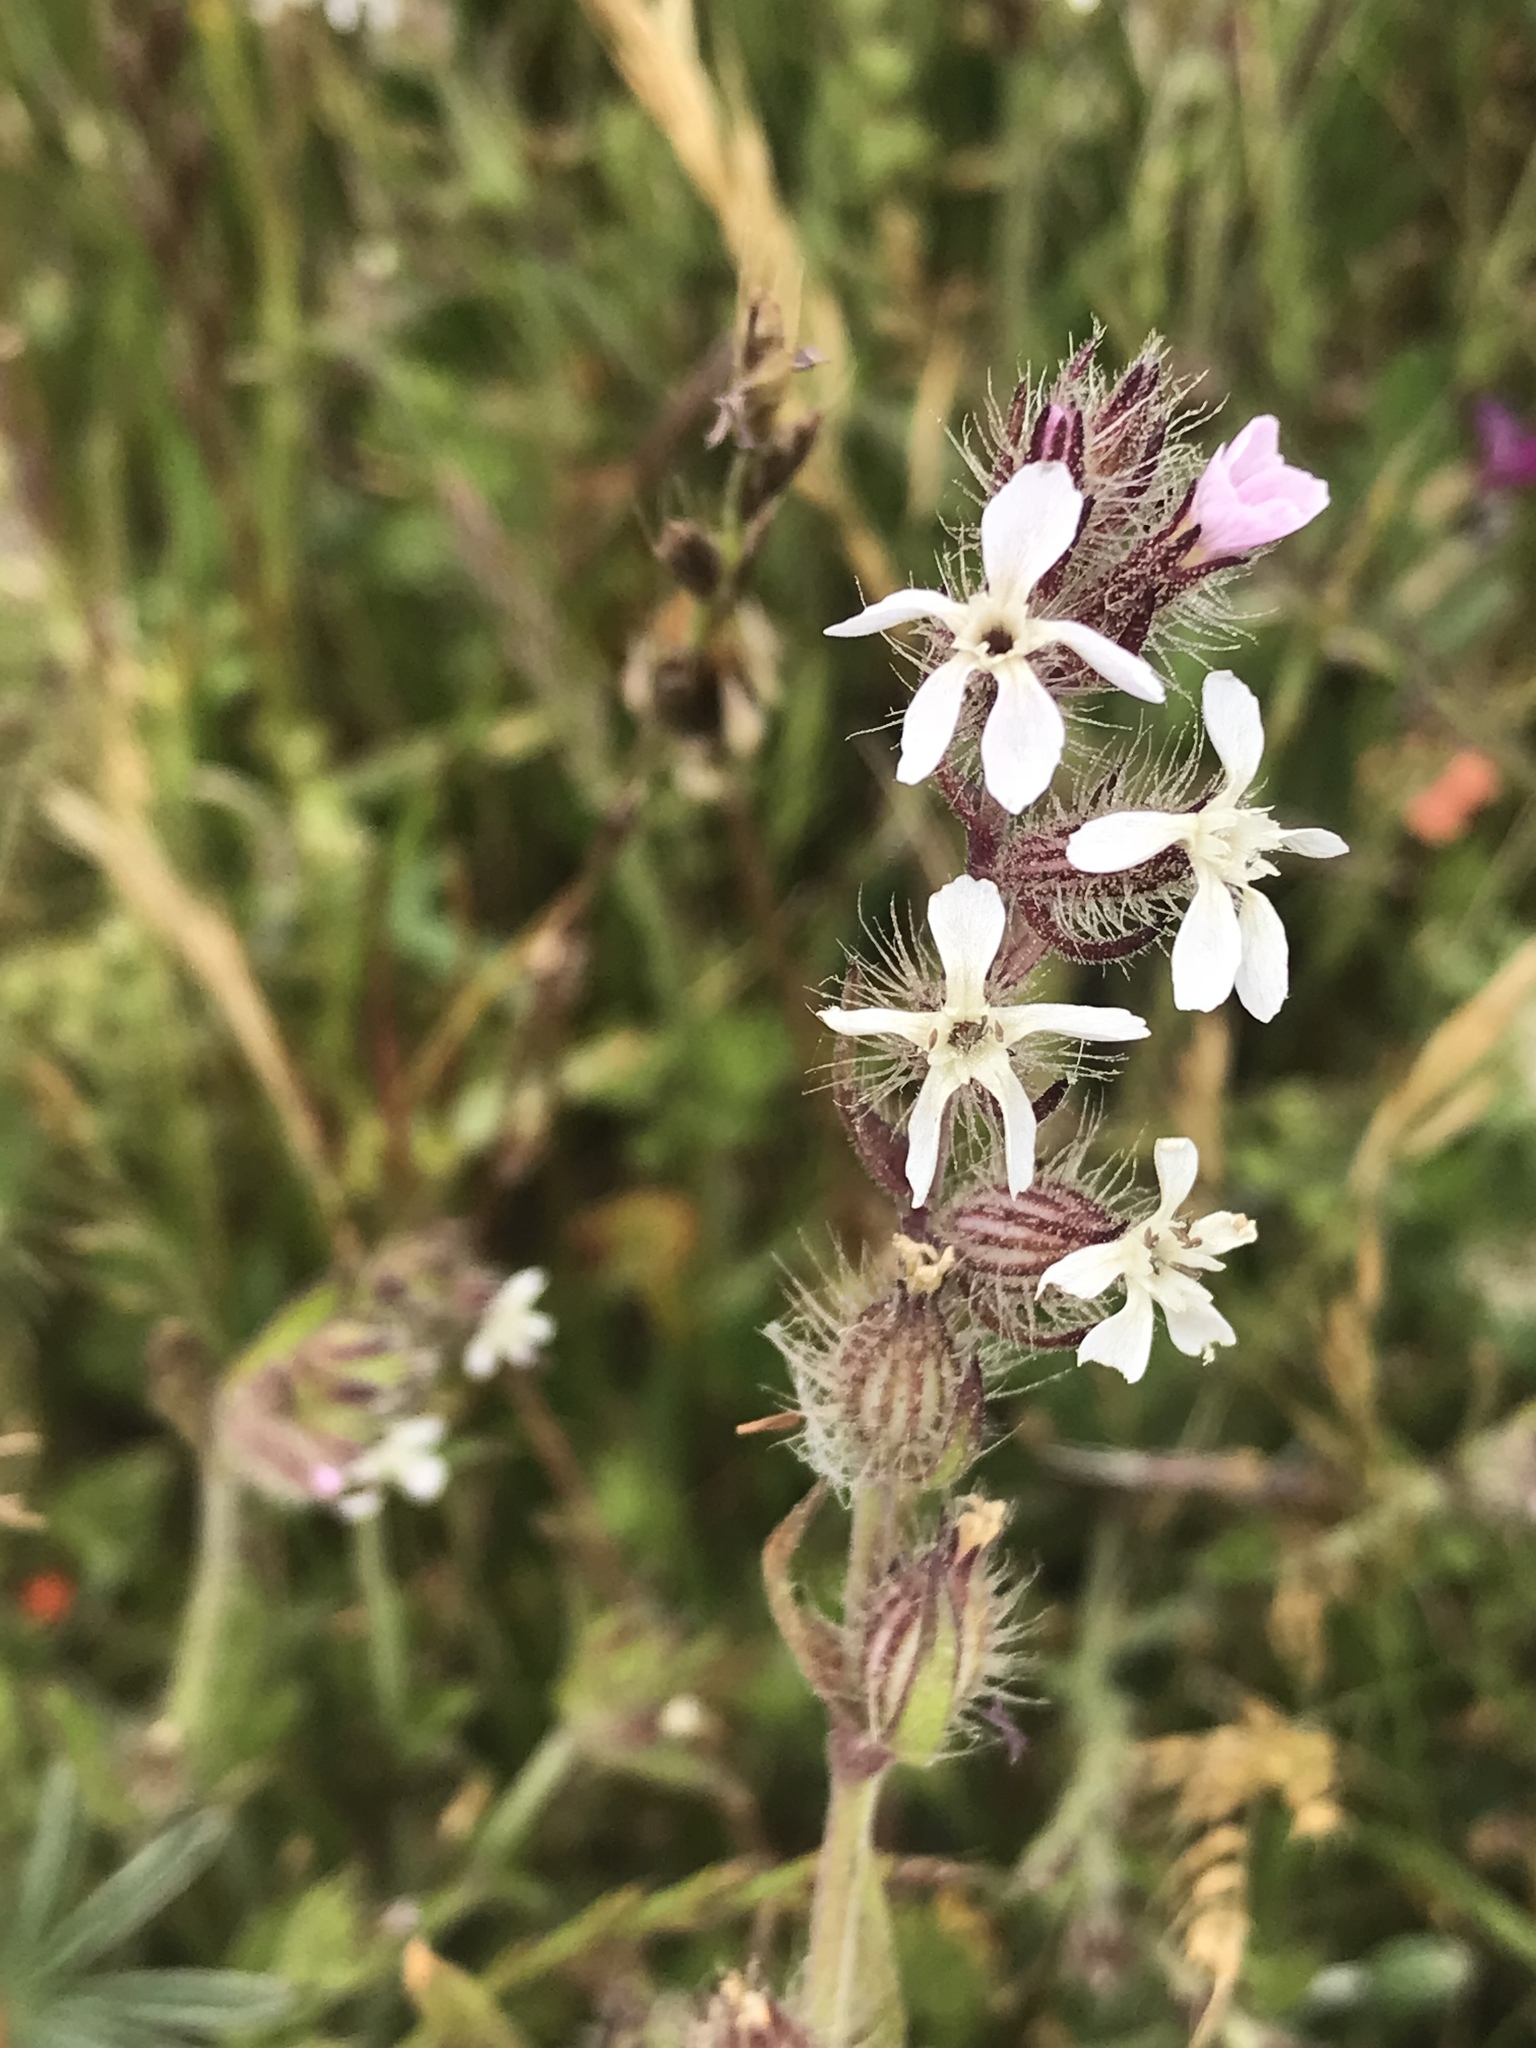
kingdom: Plantae
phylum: Tracheophyta
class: Magnoliopsida
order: Caryophyllales
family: Caryophyllaceae
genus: Silene
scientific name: Silene gallica
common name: Small-flowered catchfly
